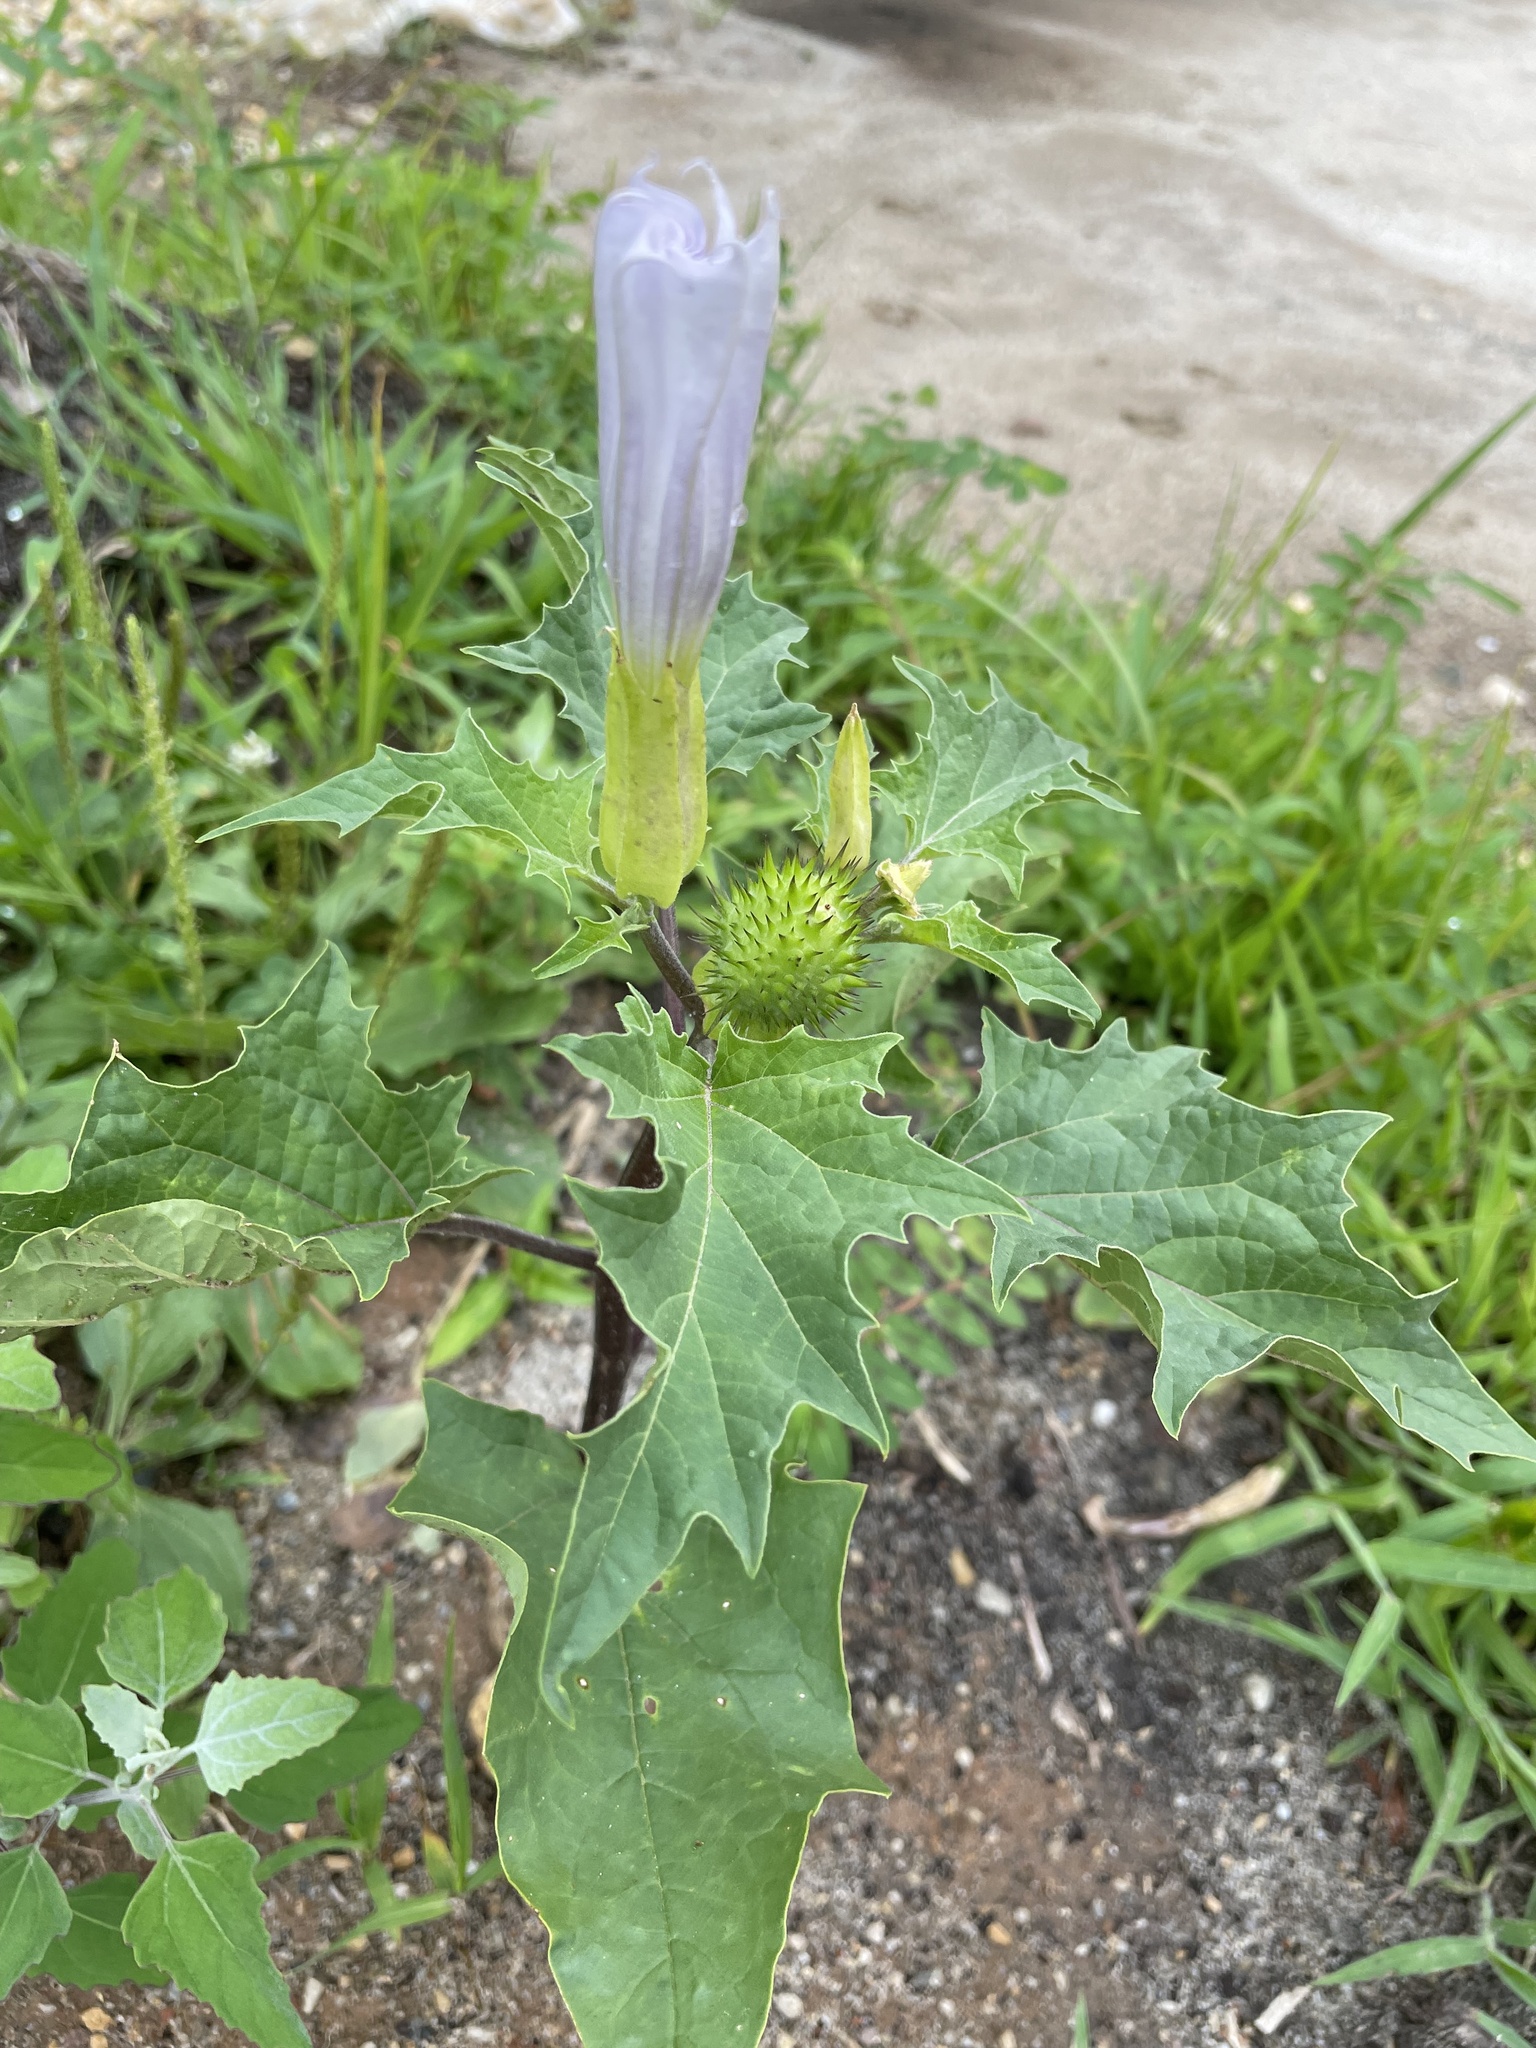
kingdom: Plantae
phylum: Tracheophyta
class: Magnoliopsida
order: Solanales
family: Solanaceae
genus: Datura
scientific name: Datura stramonium
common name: Thorn-apple
